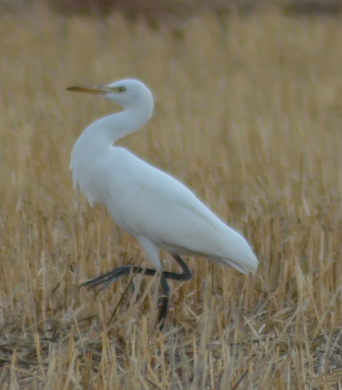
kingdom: Animalia
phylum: Chordata
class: Aves
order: Pelecaniformes
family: Ardeidae
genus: Bubulcus
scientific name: Bubulcus ibis
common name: Cattle egret
